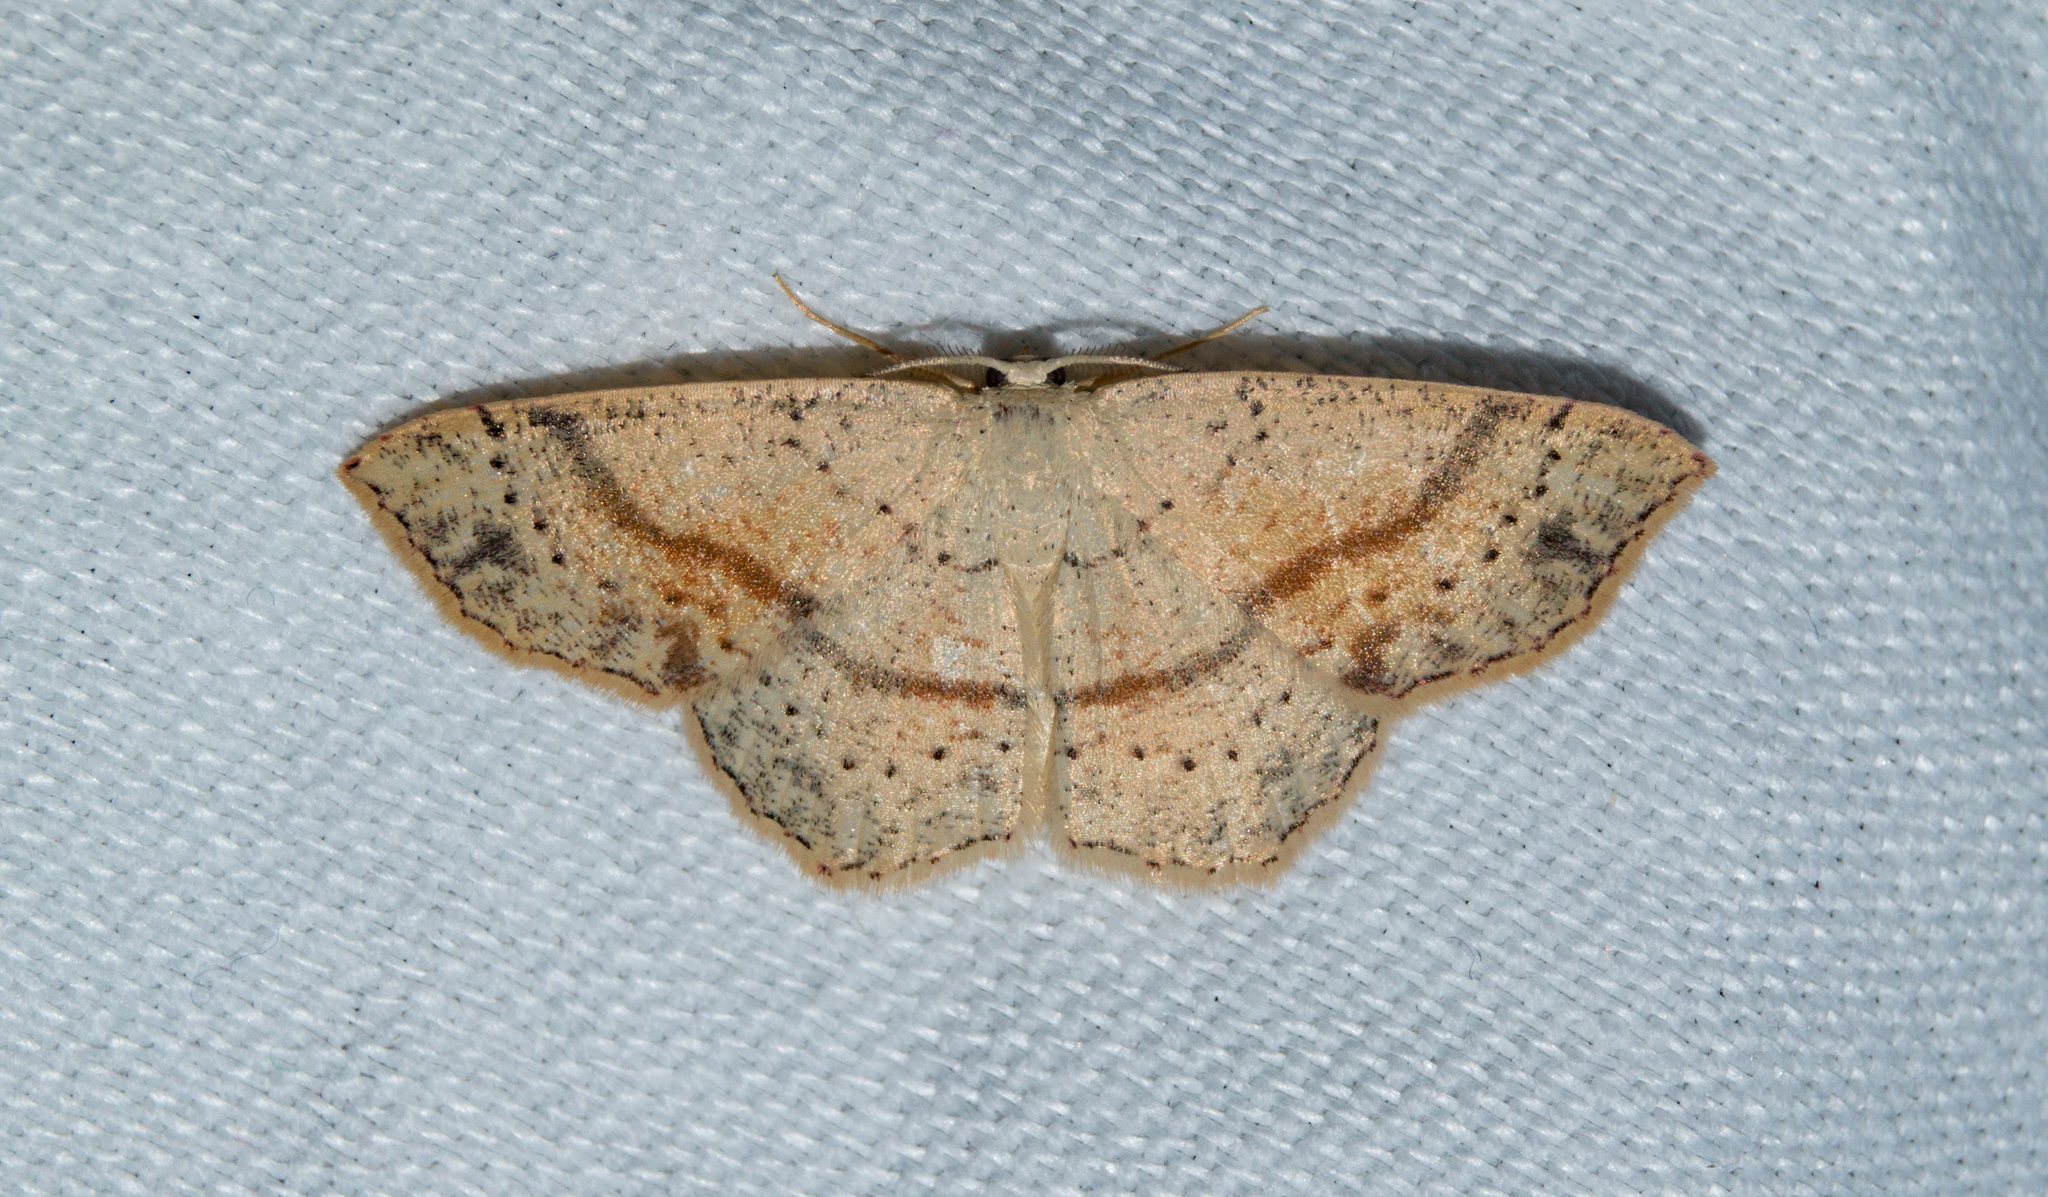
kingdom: Animalia
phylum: Arthropoda
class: Insecta
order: Lepidoptera
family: Geometridae
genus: Cyclophora
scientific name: Cyclophora punctaria
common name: Maiden's blush
